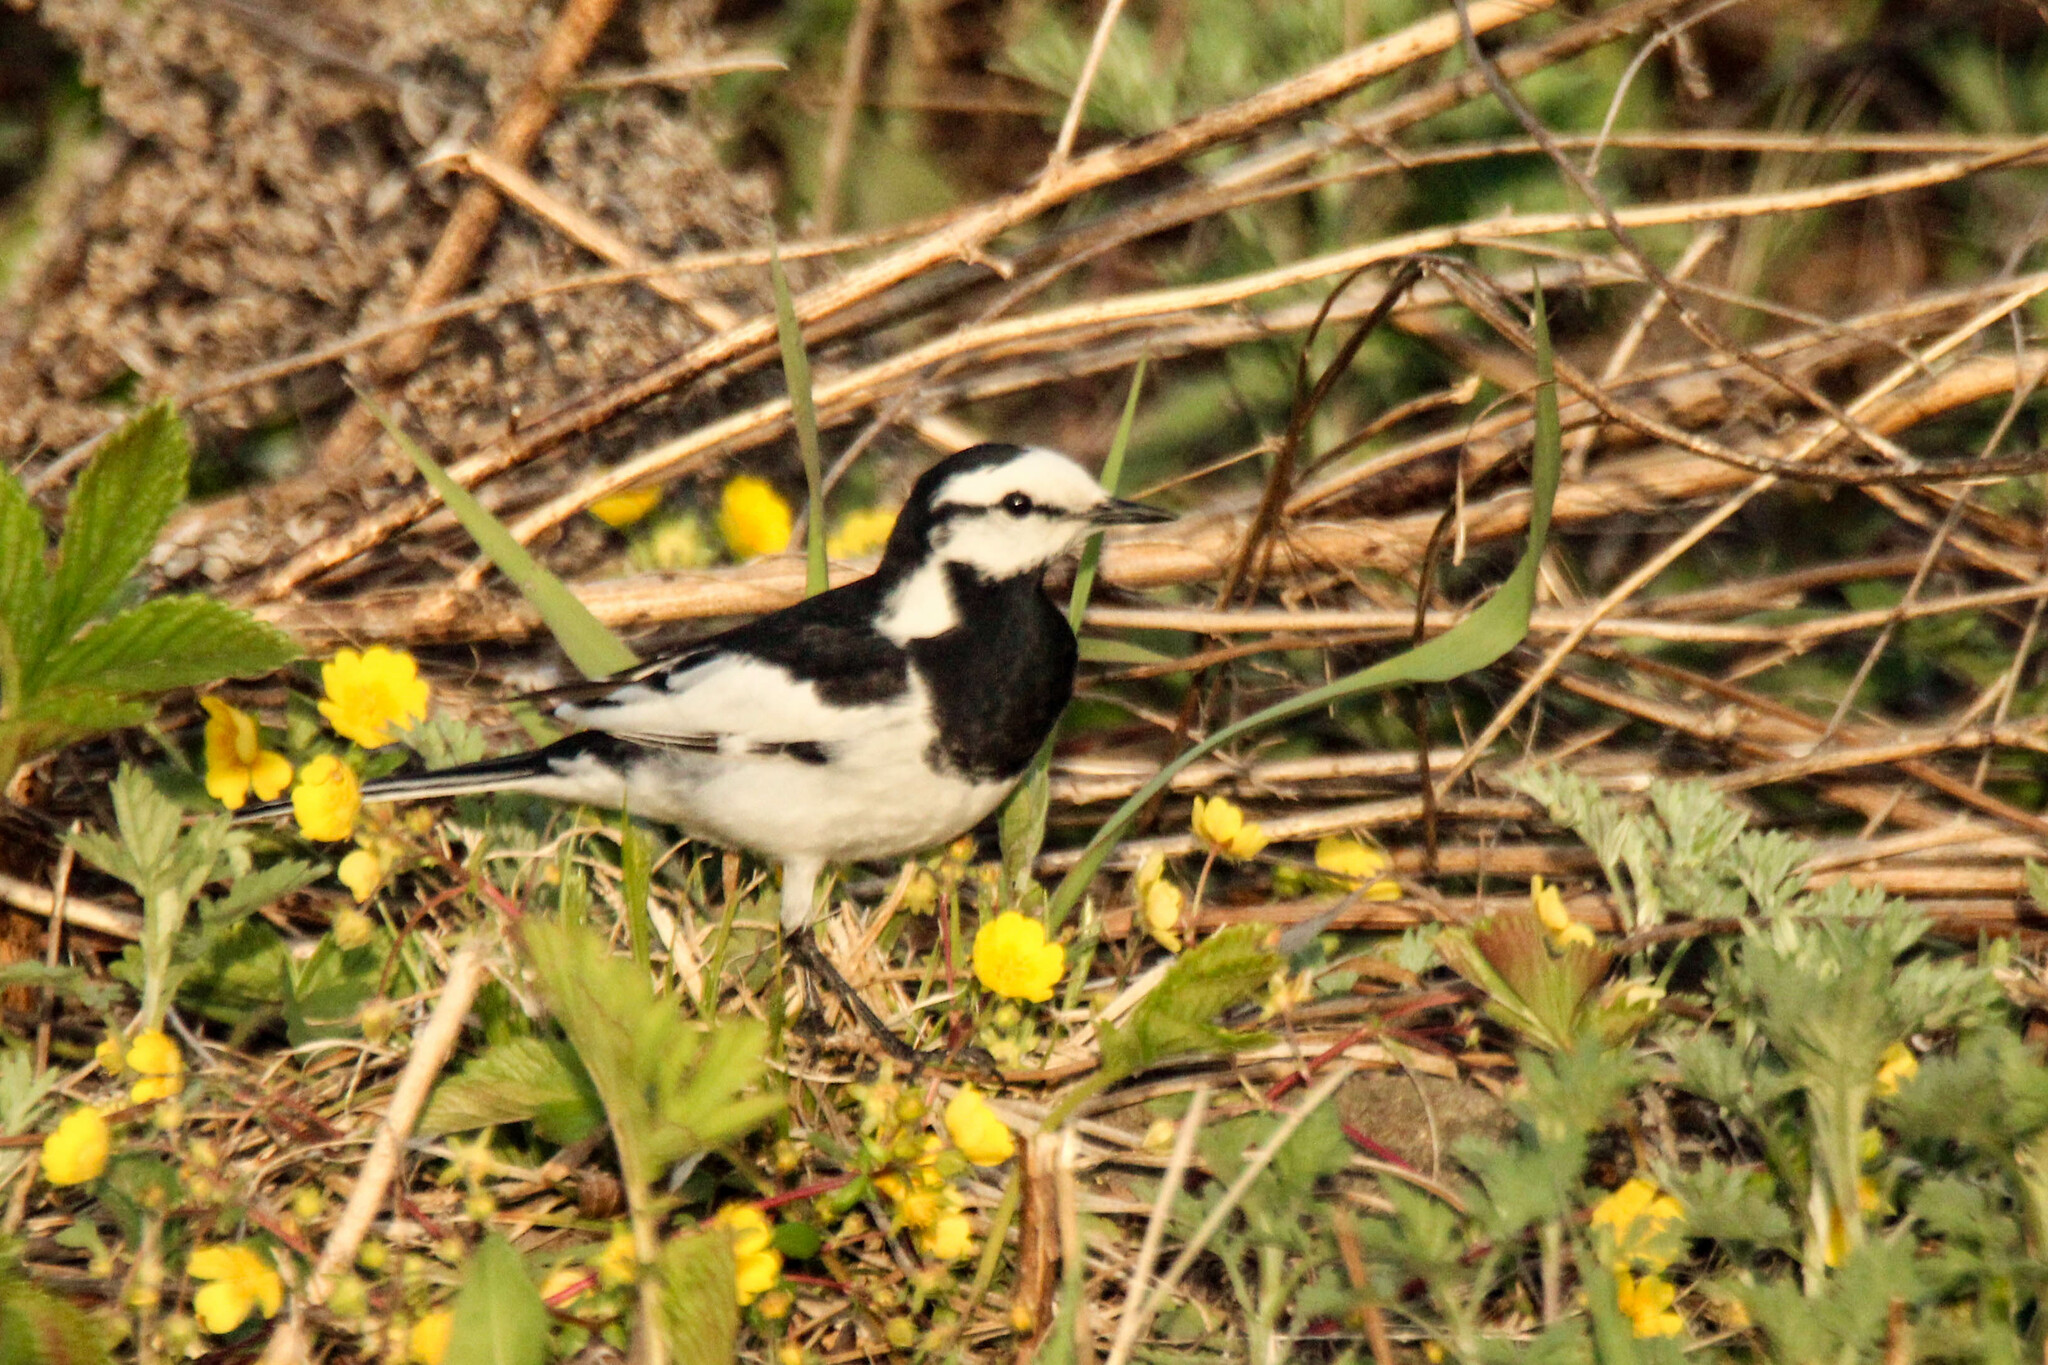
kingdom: Animalia
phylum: Chordata
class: Aves
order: Passeriformes
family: Motacillidae
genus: Motacilla
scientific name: Motacilla alba
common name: White wagtail
